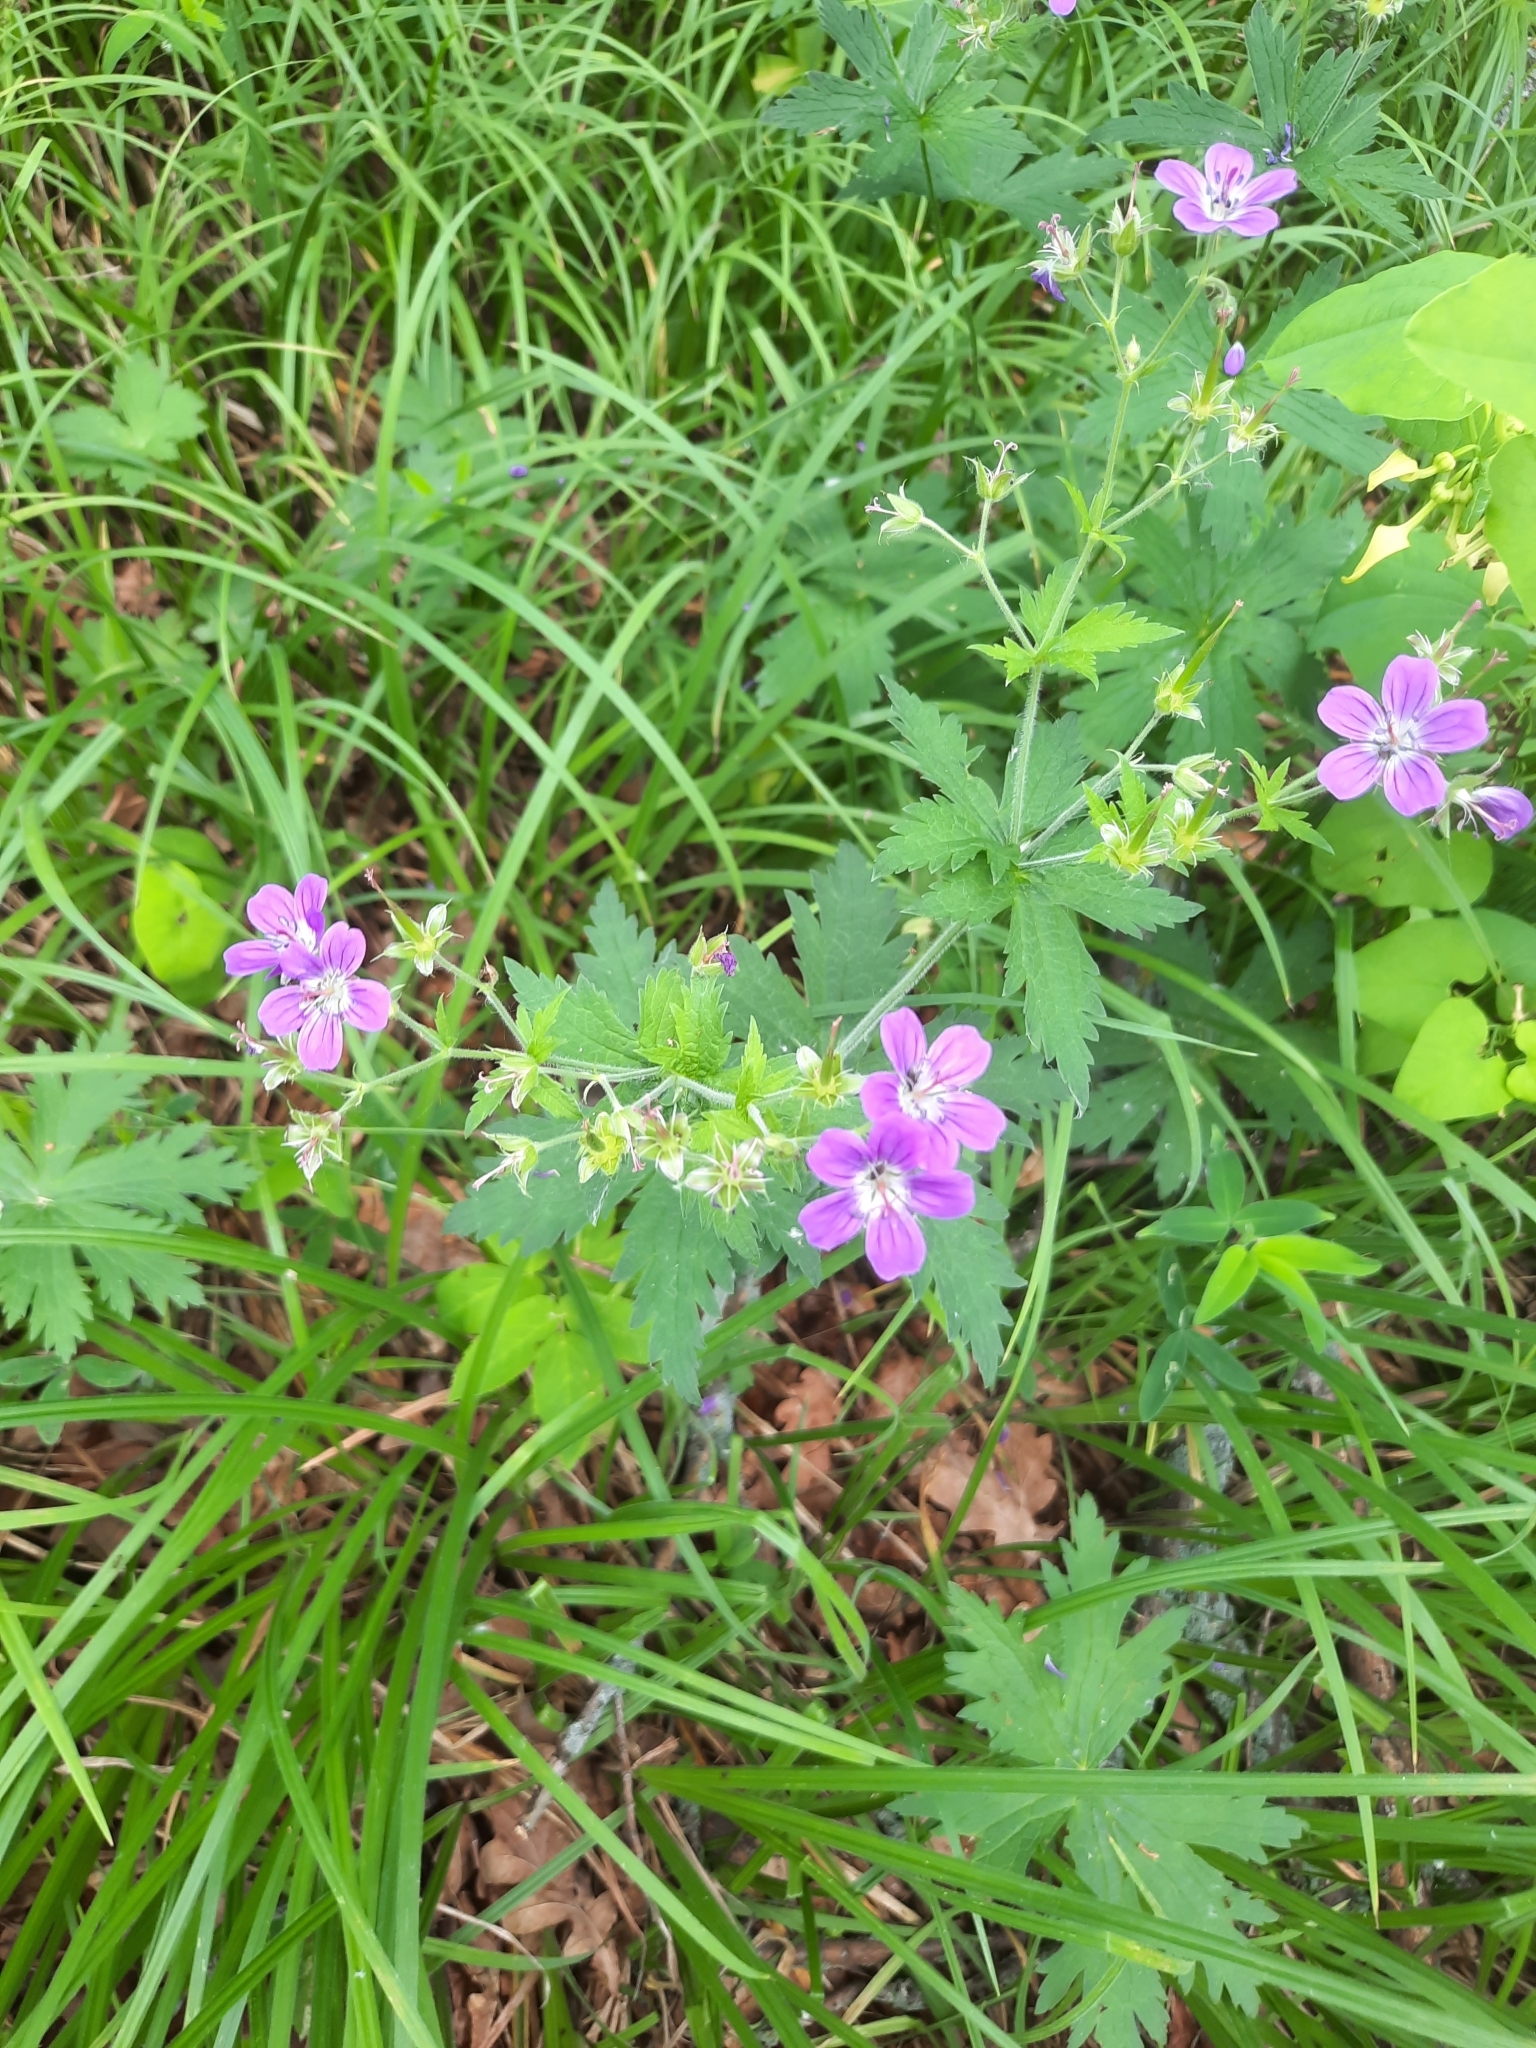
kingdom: Plantae
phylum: Tracheophyta
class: Magnoliopsida
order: Geraniales
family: Geraniaceae
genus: Geranium
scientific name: Geranium sylvaticum
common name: Wood crane's-bill
